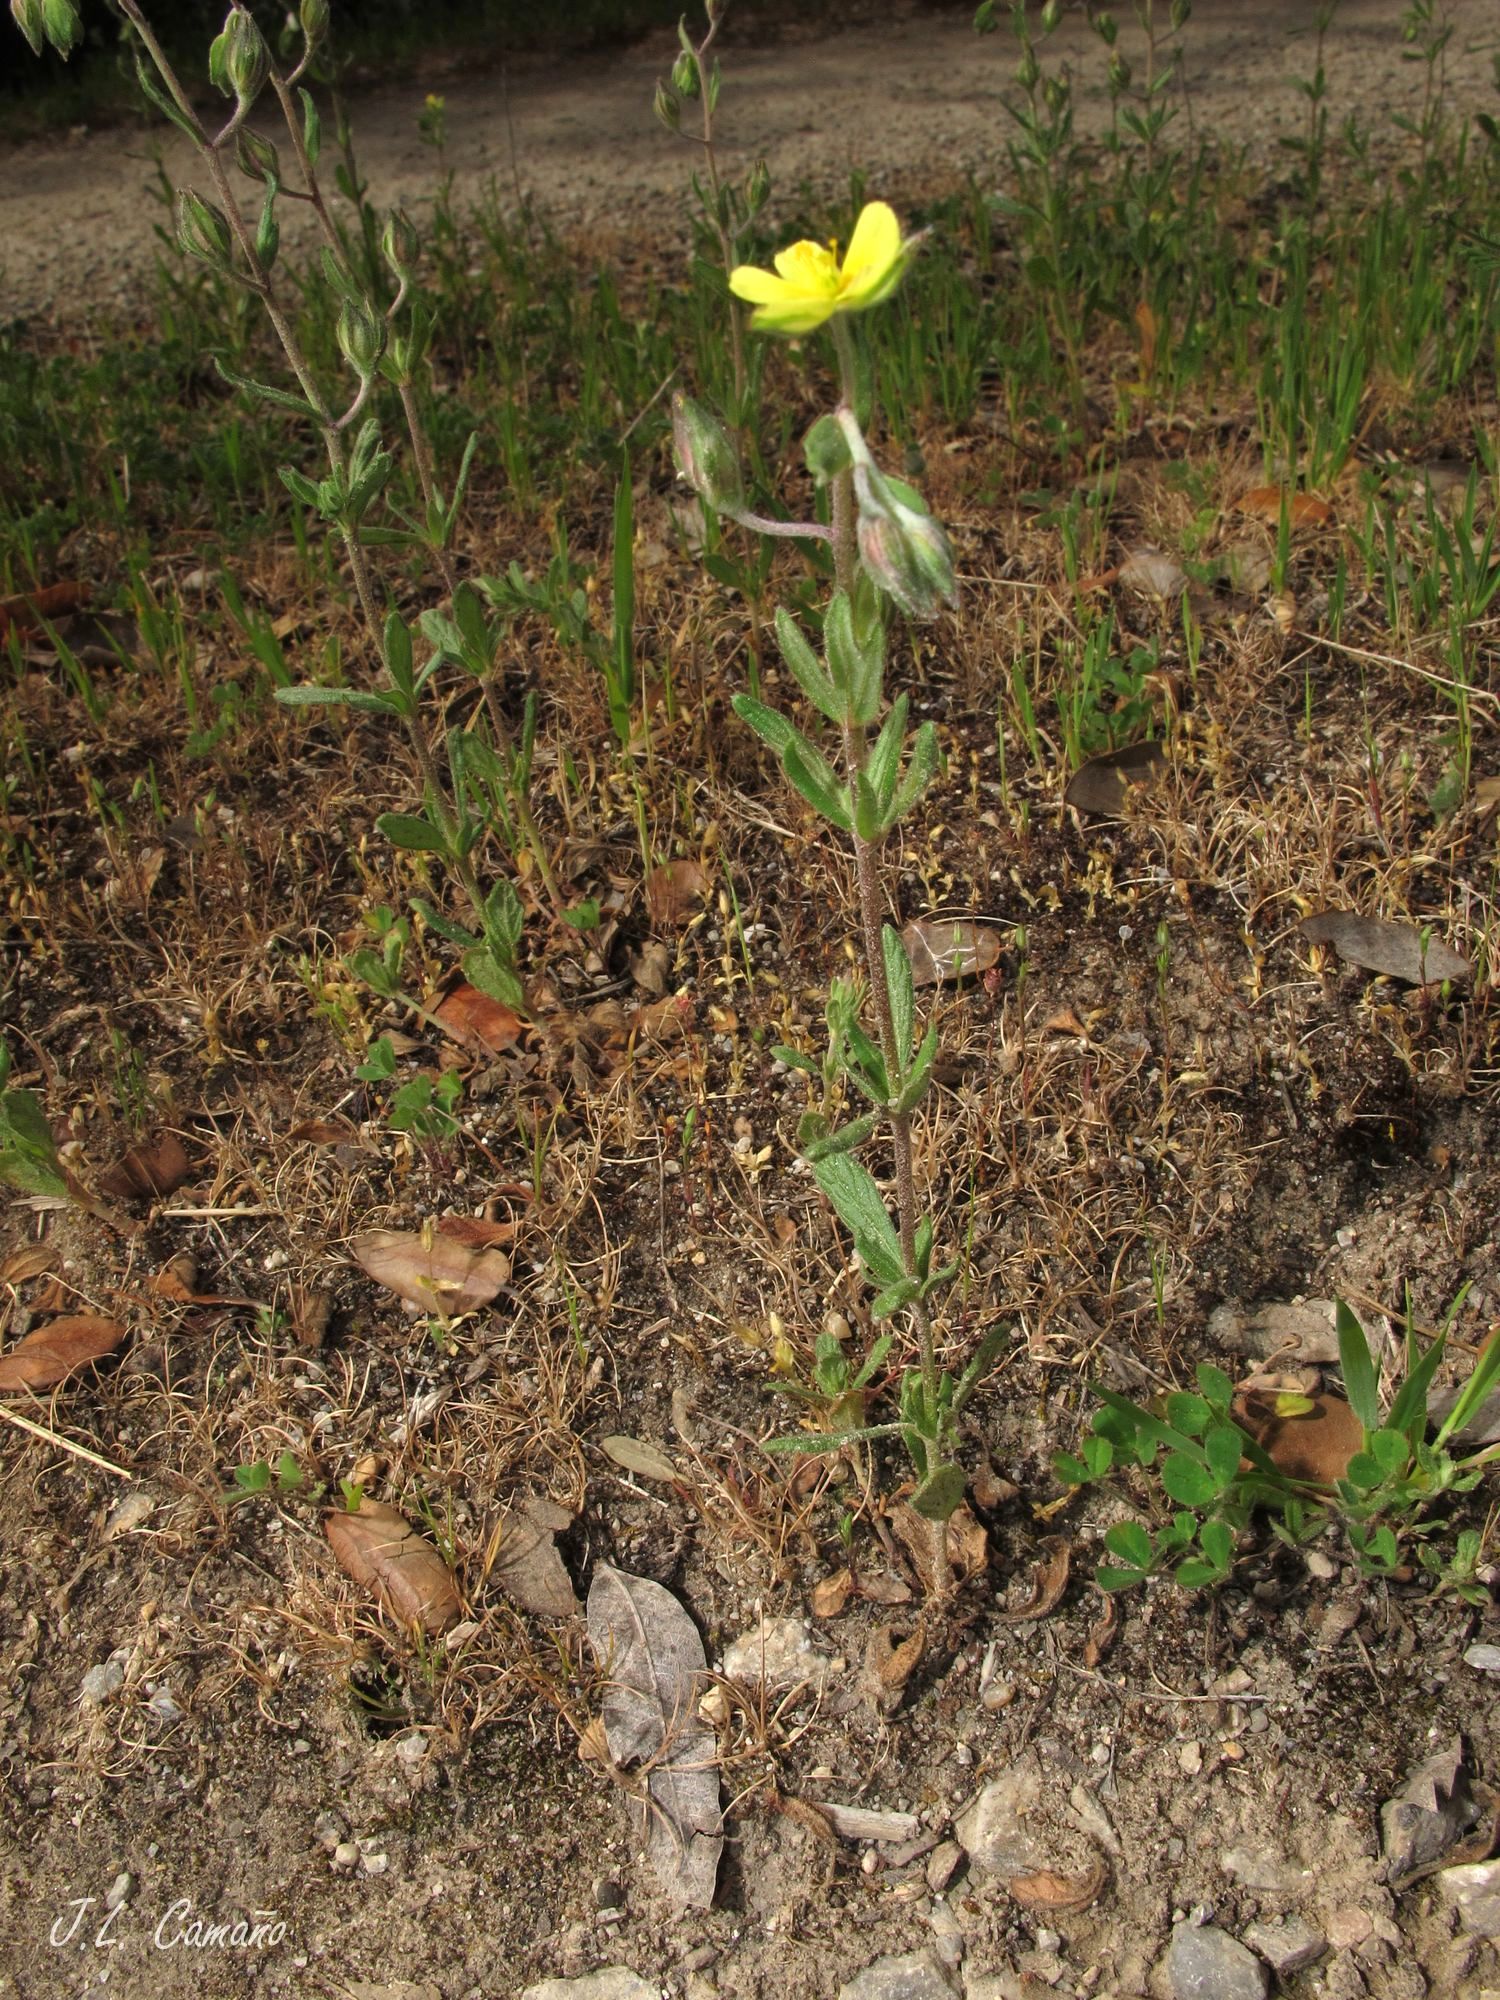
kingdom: Plantae
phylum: Tracheophyta
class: Magnoliopsida
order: Malvales
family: Cistaceae
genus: Helianthemum
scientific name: Helianthemum salicifolium
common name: Willowleaf frostweed
